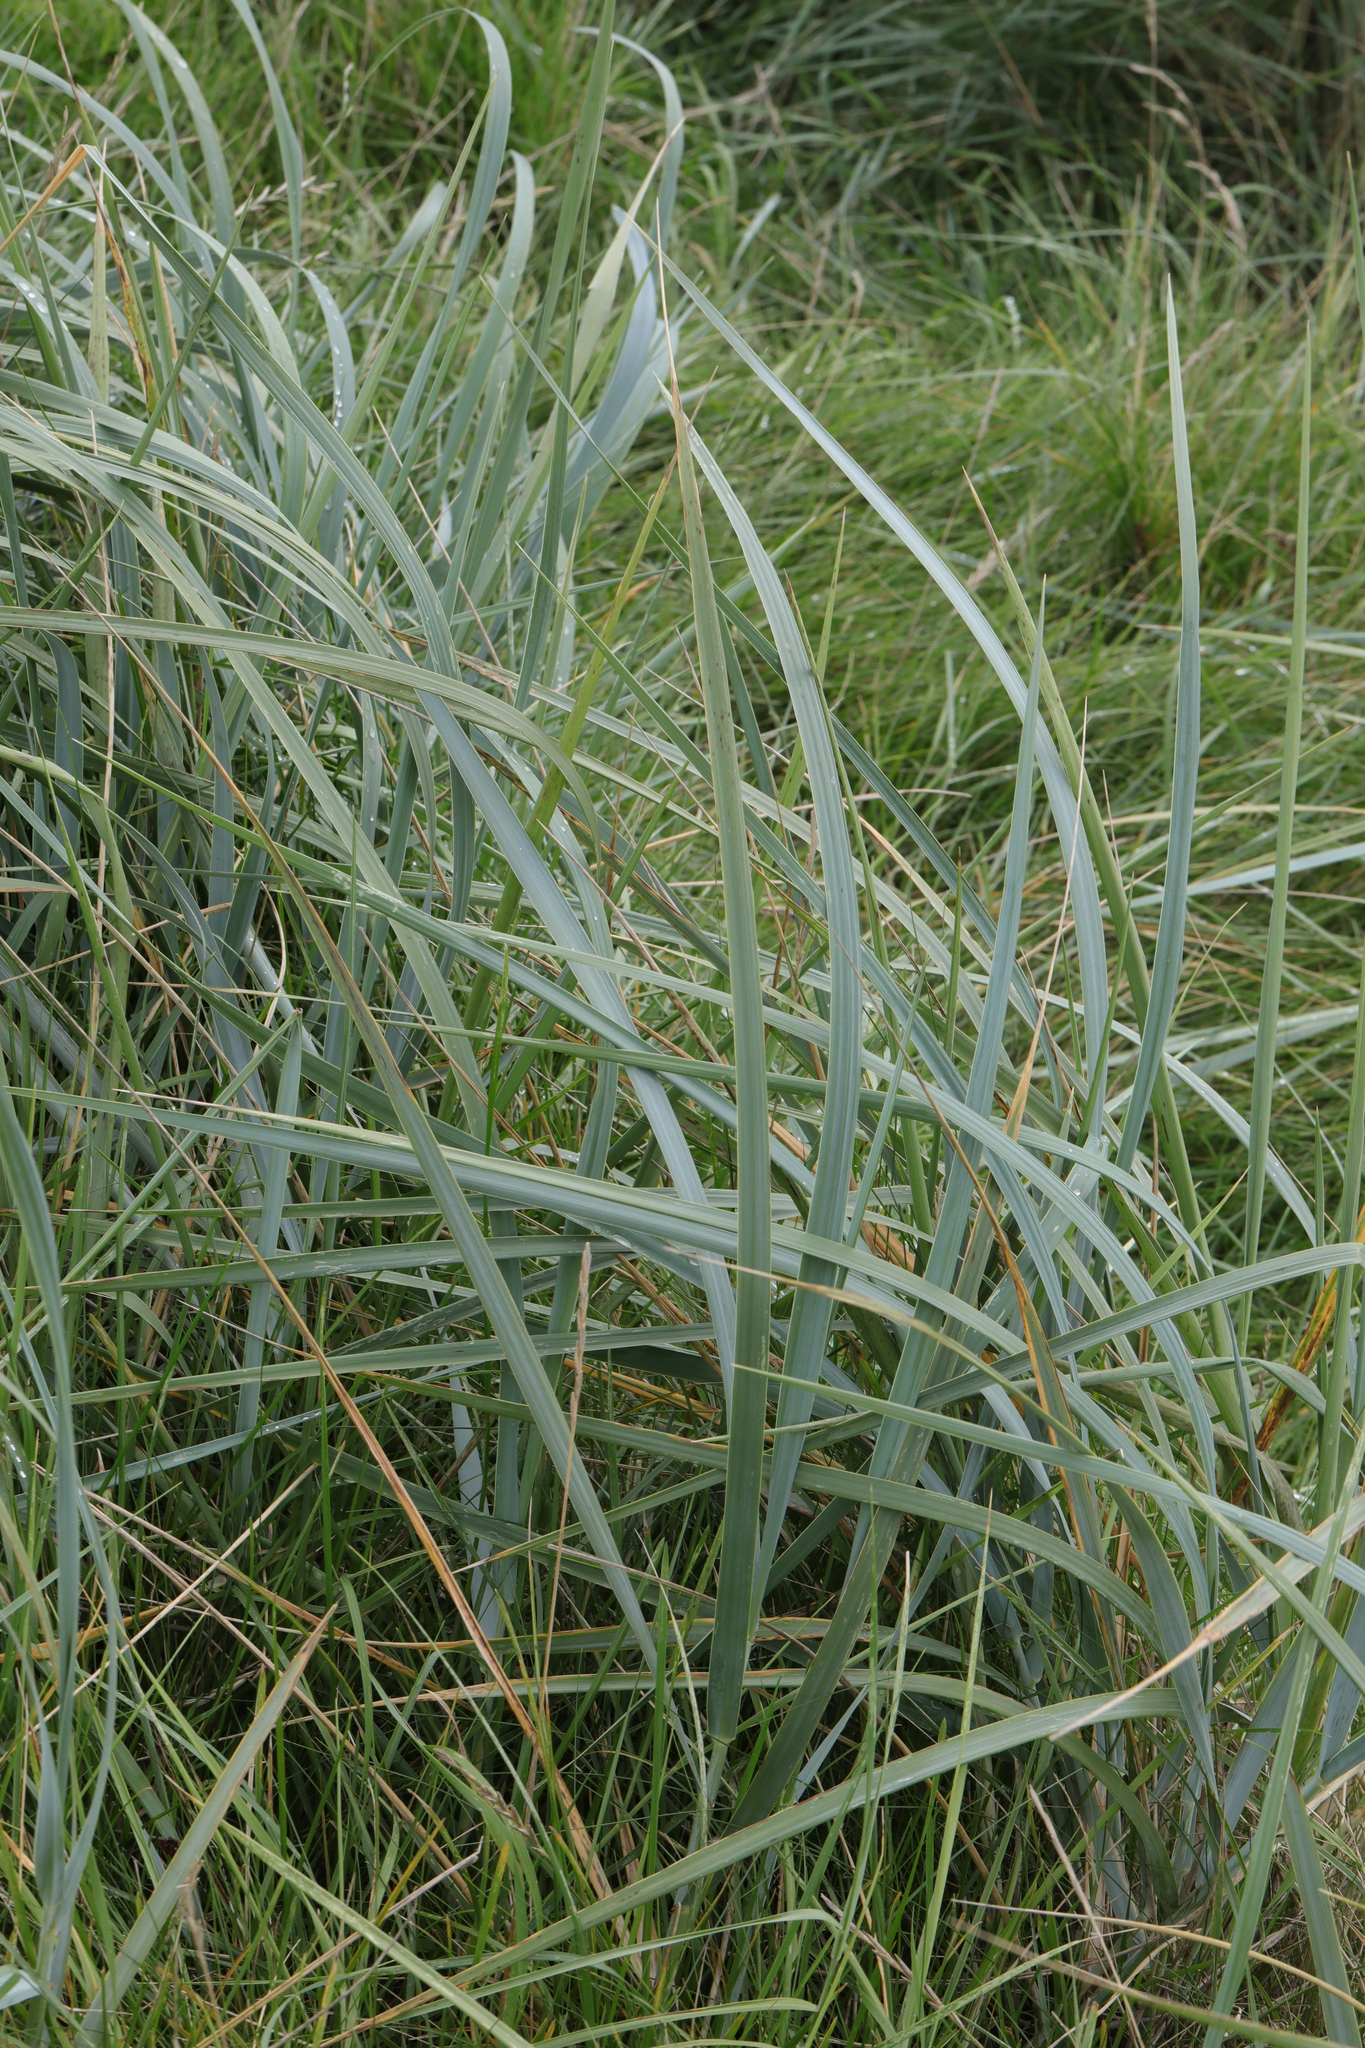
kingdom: Plantae
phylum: Tracheophyta
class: Liliopsida
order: Poales
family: Poaceae
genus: Leymus
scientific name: Leymus arenarius
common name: Lyme-grass
